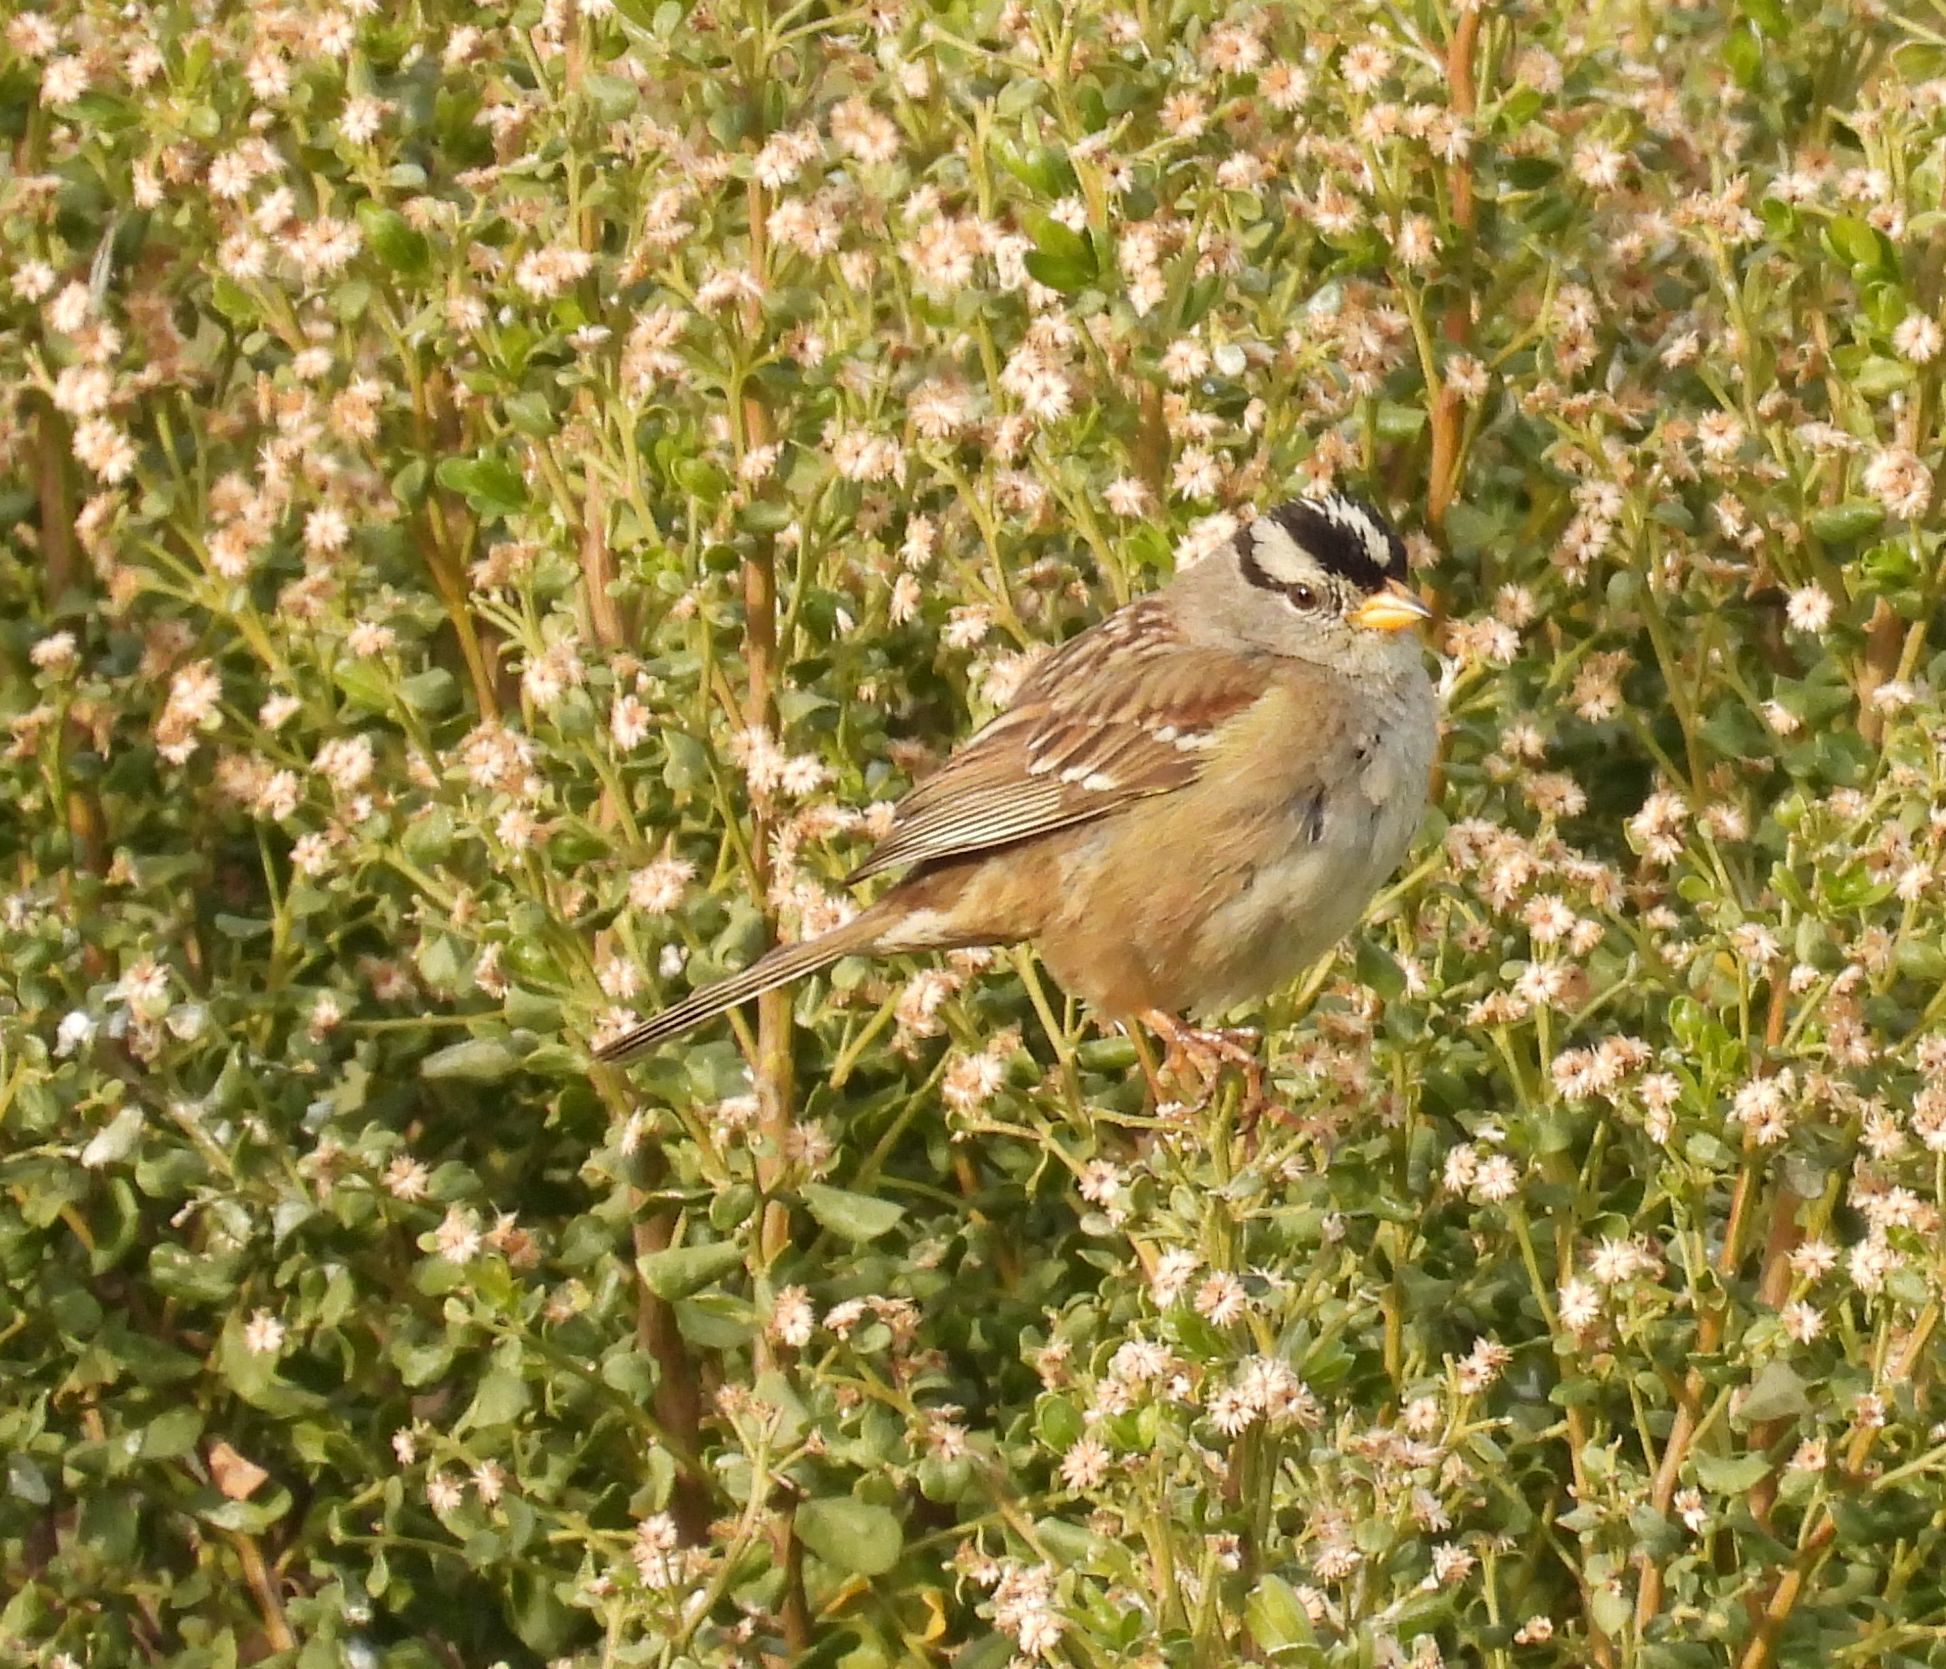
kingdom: Animalia
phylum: Chordata
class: Aves
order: Passeriformes
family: Passerellidae
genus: Zonotrichia
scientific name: Zonotrichia leucophrys
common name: White-crowned sparrow
